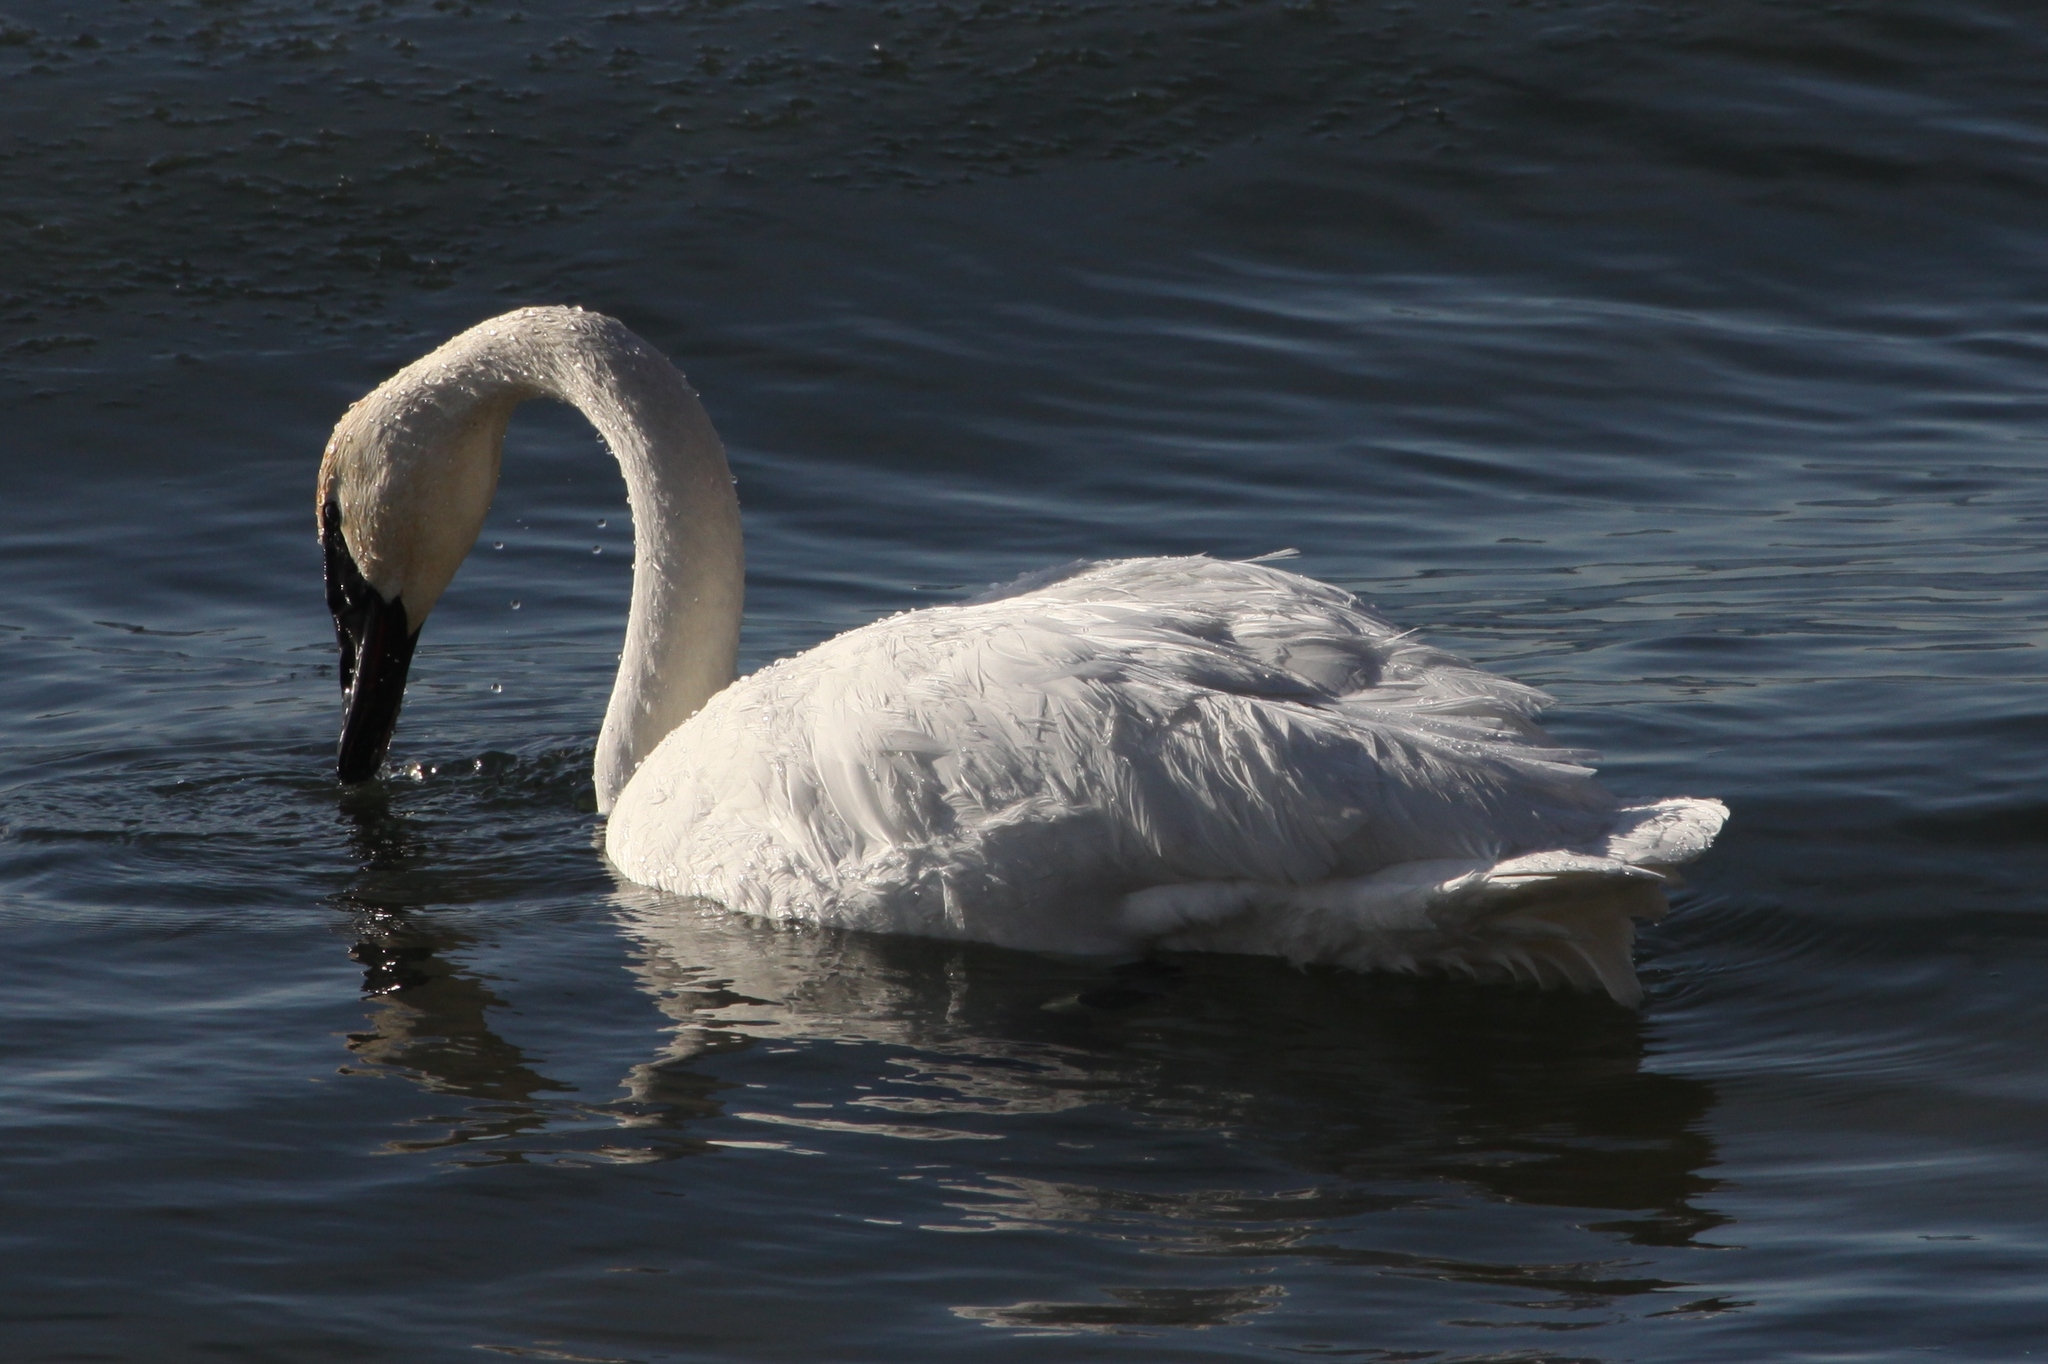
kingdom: Animalia
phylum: Chordata
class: Aves
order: Anseriformes
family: Anatidae
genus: Cygnus
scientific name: Cygnus buccinator
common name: Trumpeter swan
